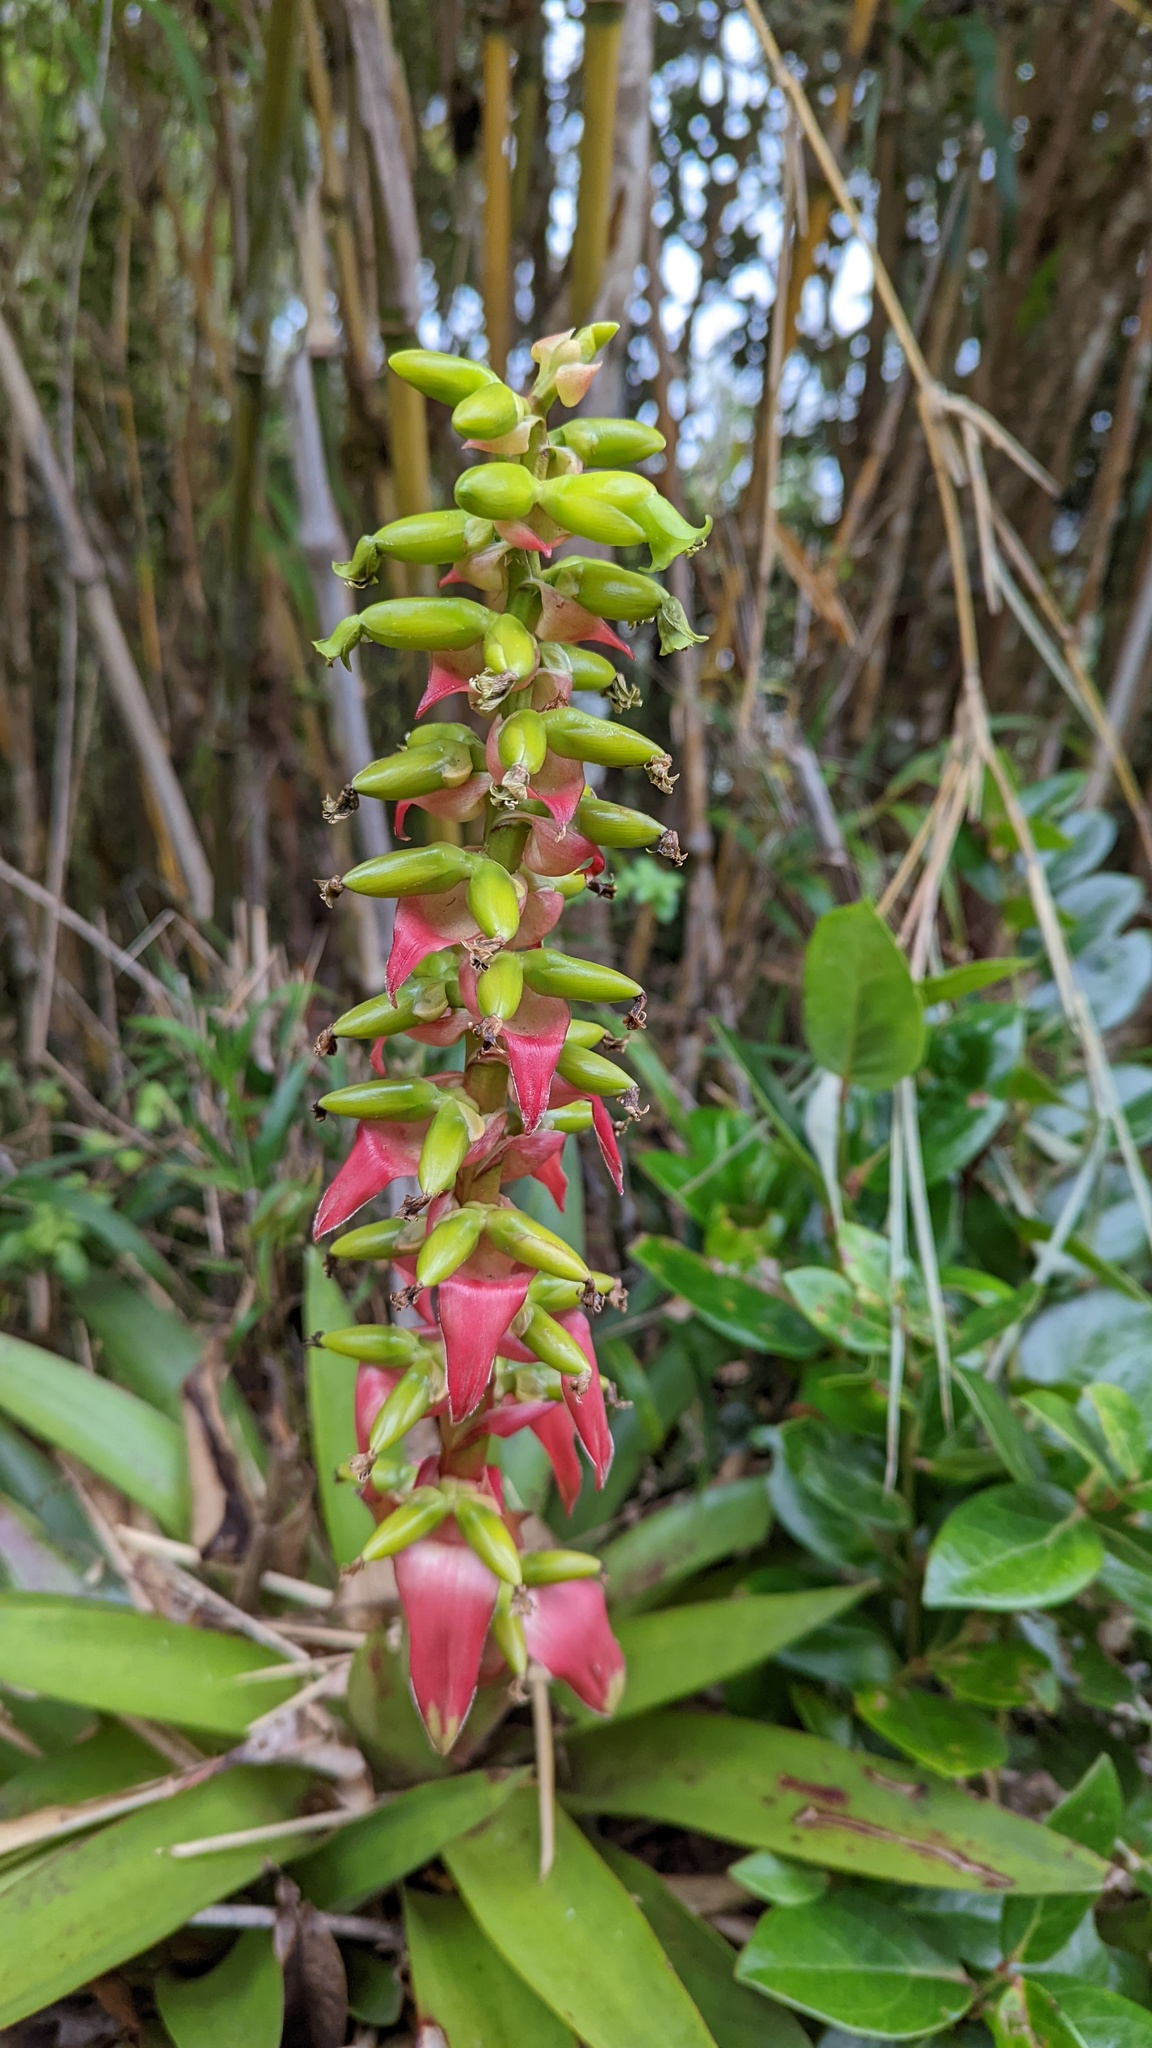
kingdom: Plantae
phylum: Tracheophyta
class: Liliopsida
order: Poales
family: Bromeliaceae
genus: Werauhia
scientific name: Werauhia ororiensis
